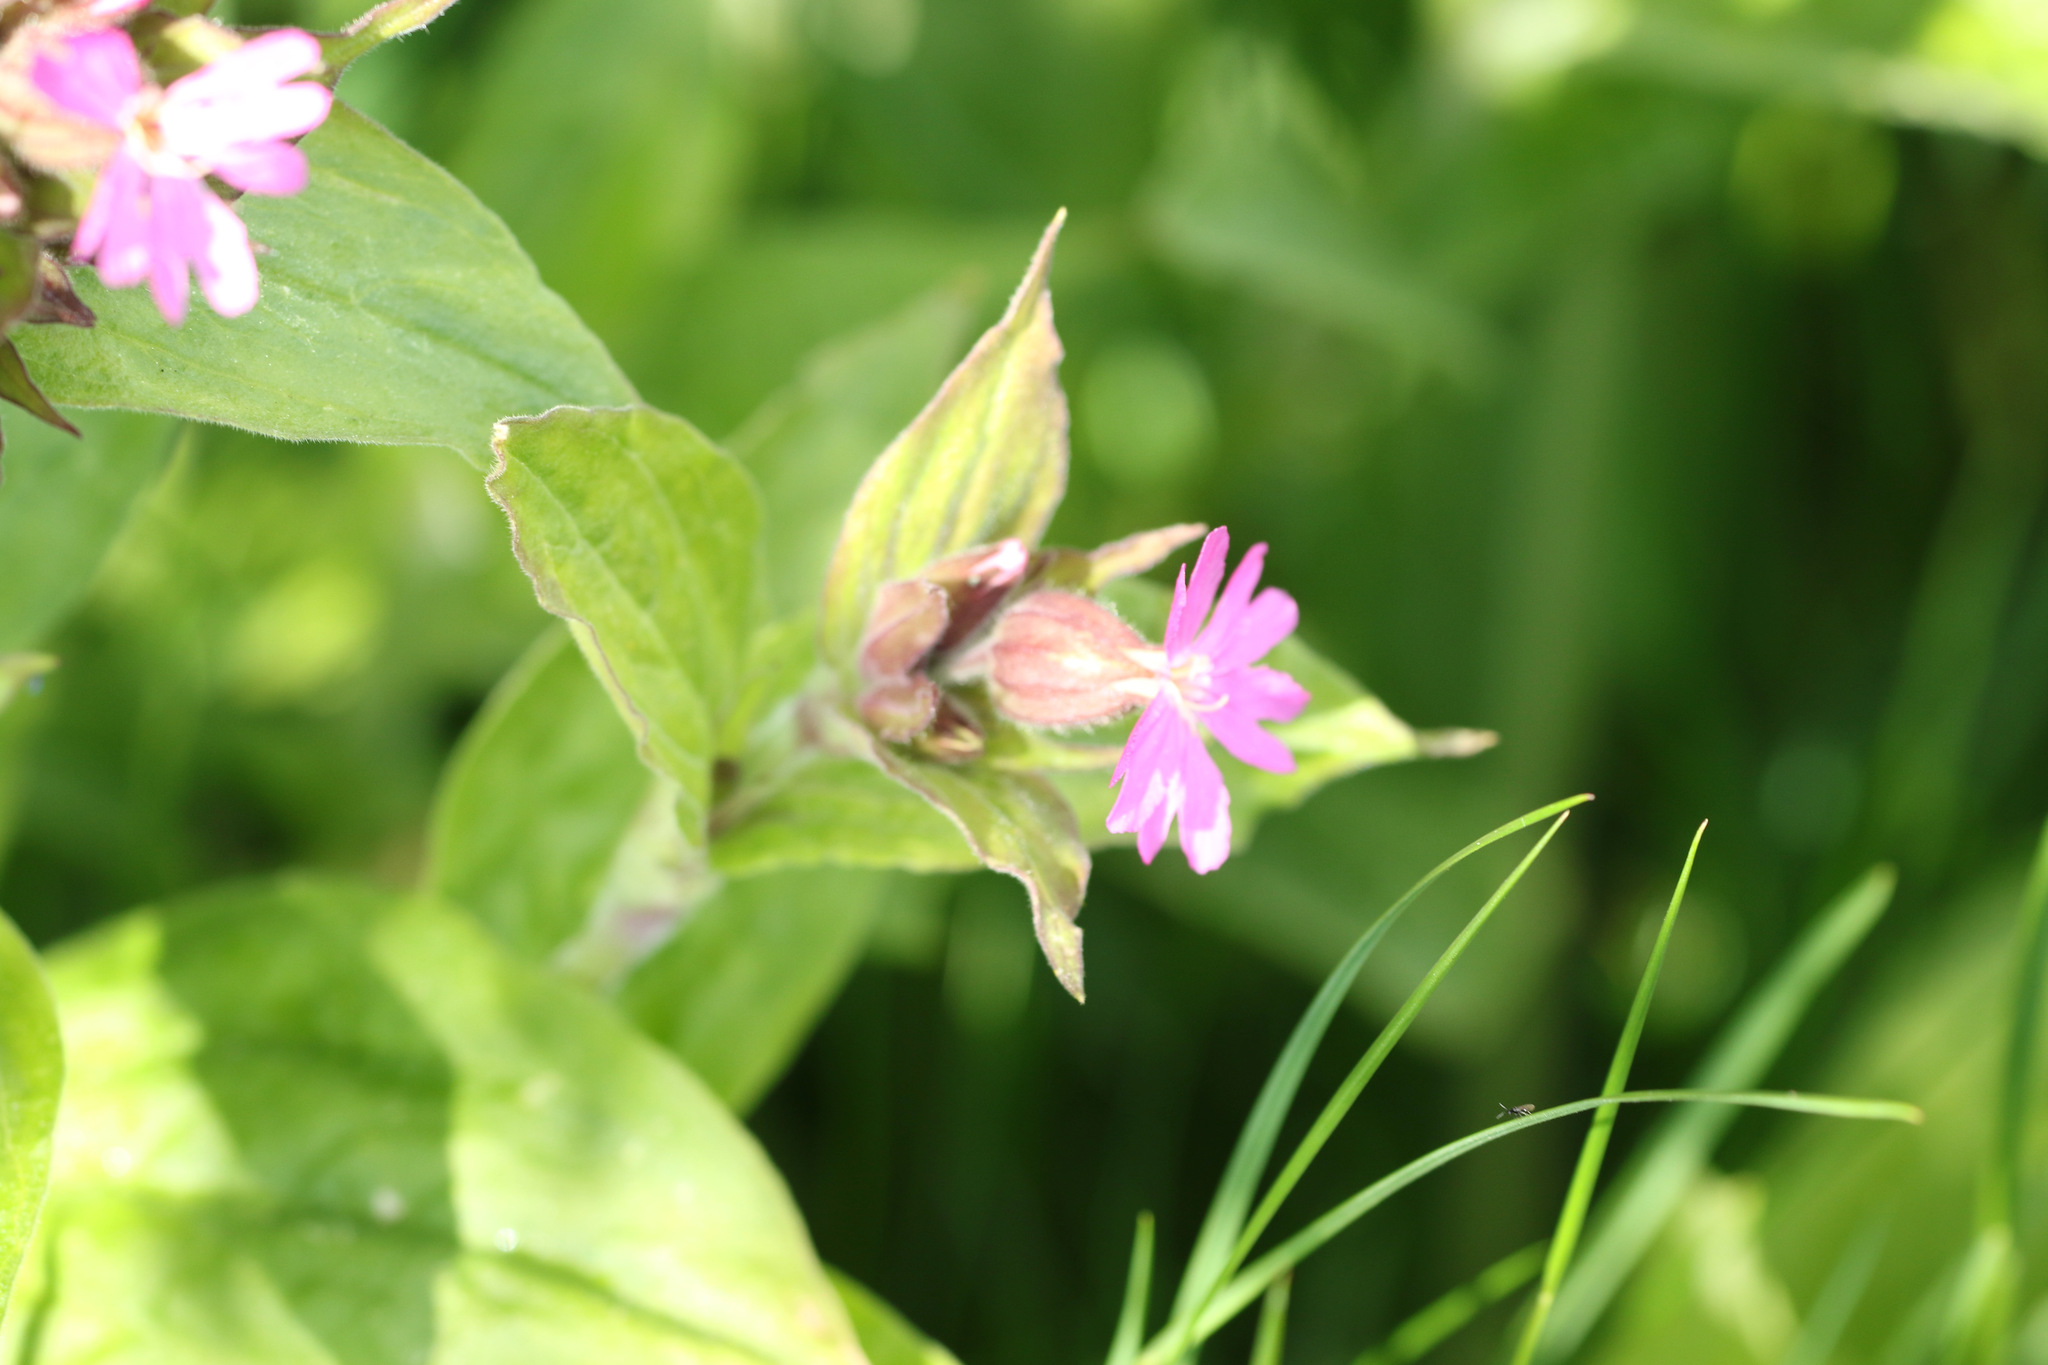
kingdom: Plantae
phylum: Tracheophyta
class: Magnoliopsida
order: Caryophyllales
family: Caryophyllaceae
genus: Silene
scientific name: Silene dioica
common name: Red campion
